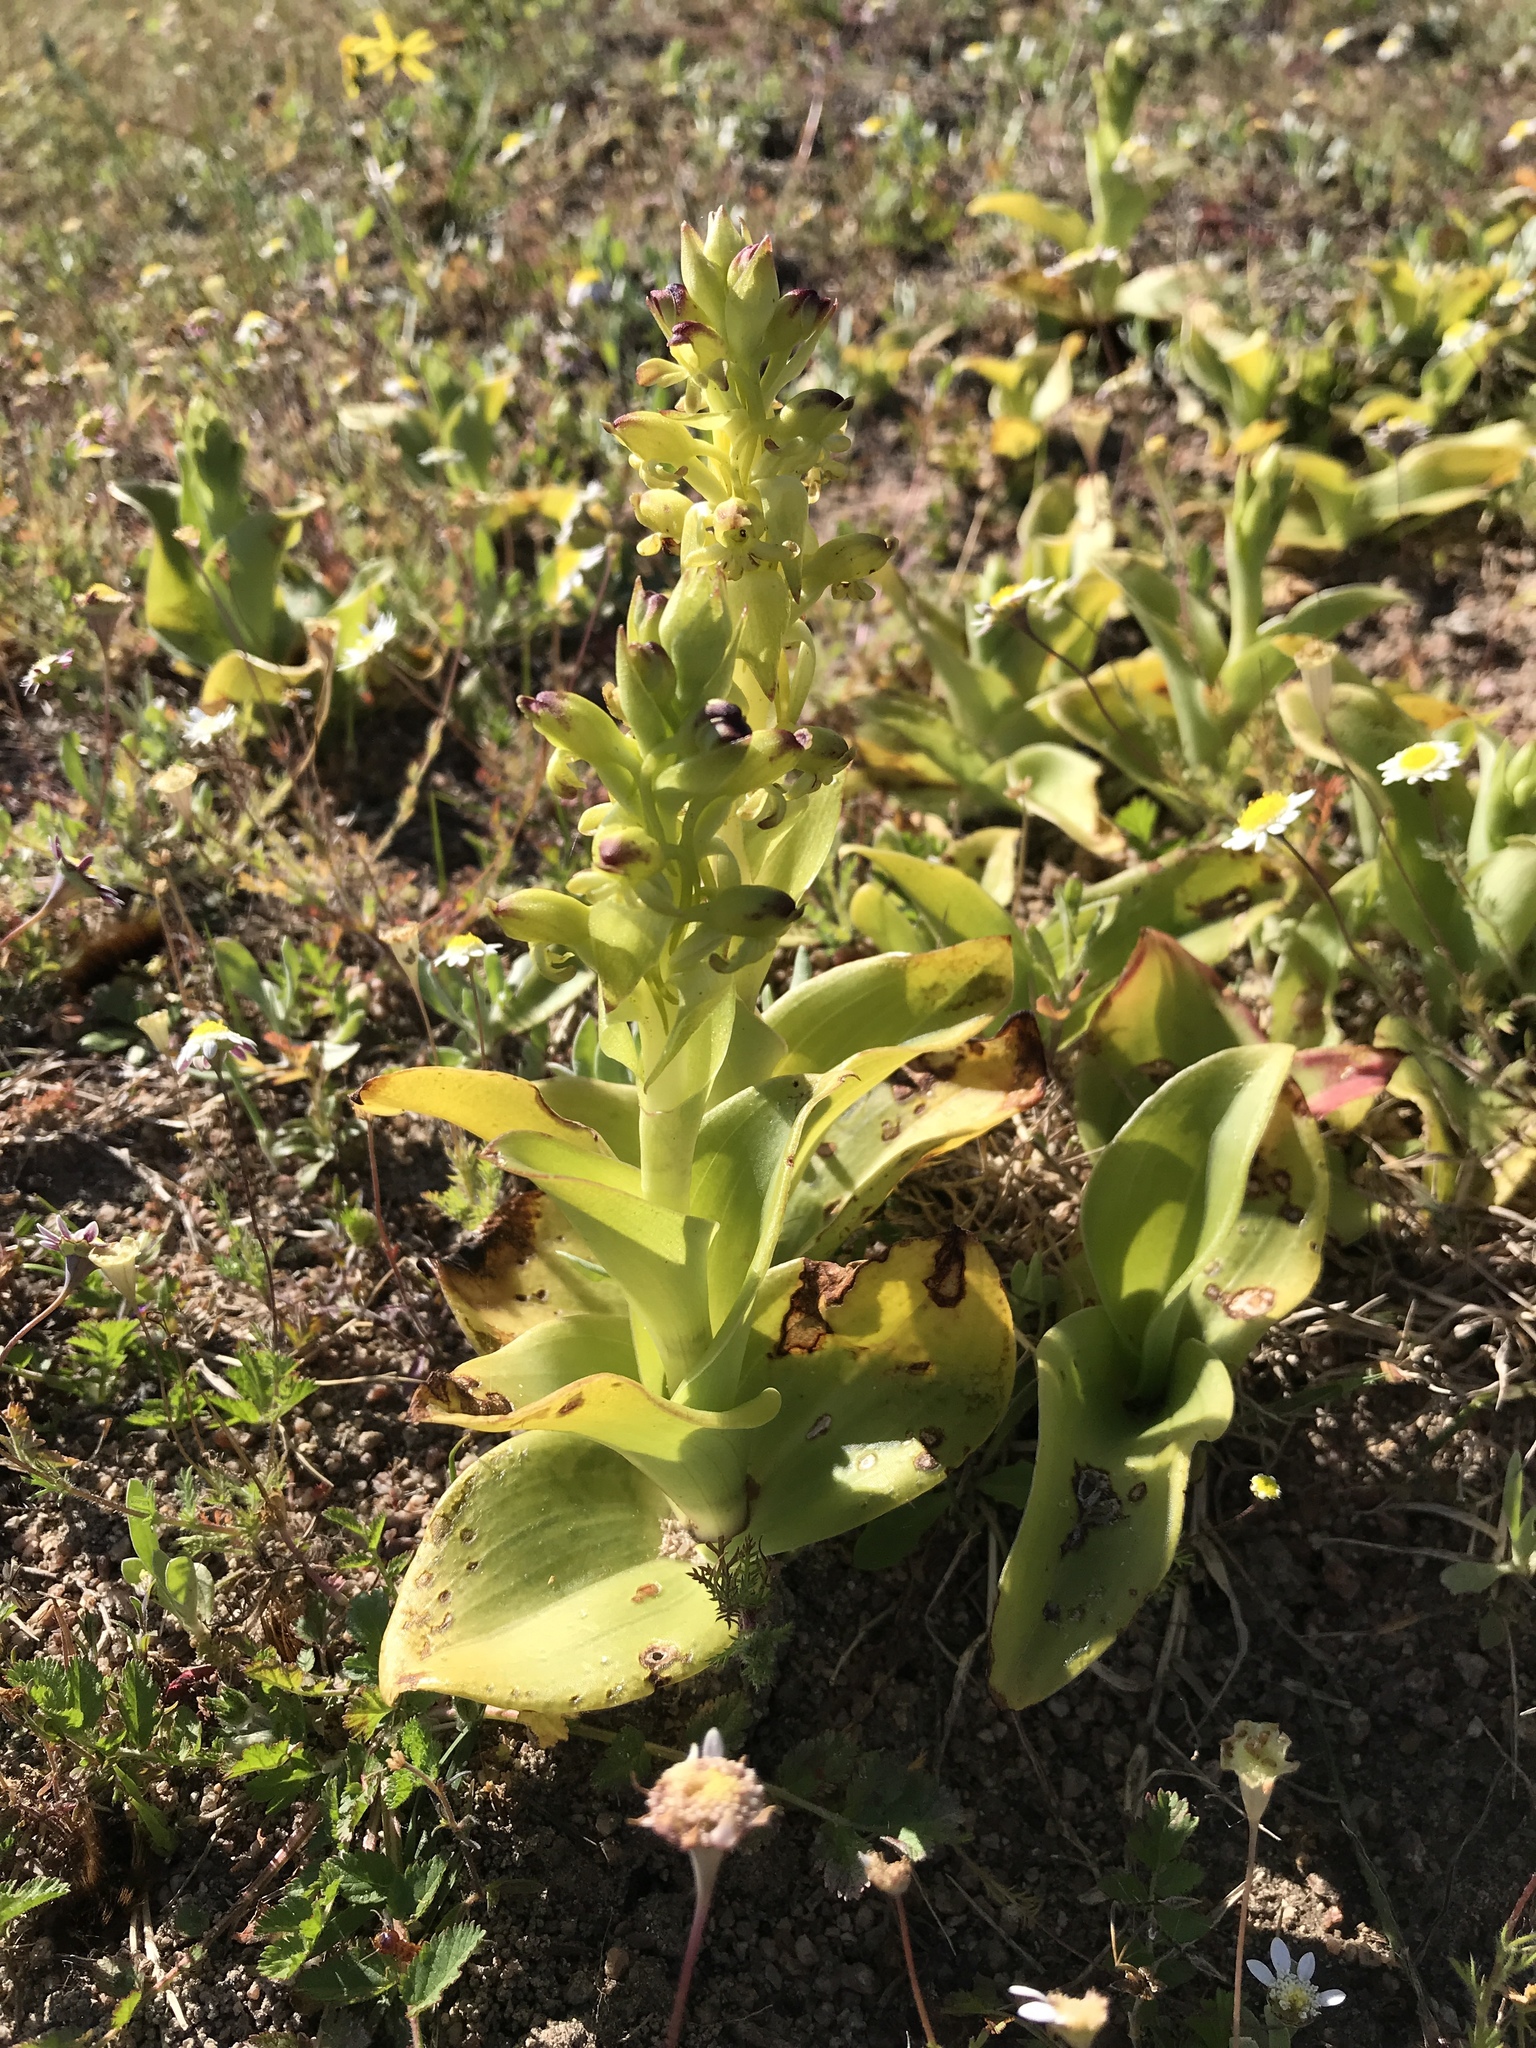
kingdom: Plantae
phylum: Tracheophyta
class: Liliopsida
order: Asparagales
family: Orchidaceae
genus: Satyrium
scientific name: Satyrium odorum
